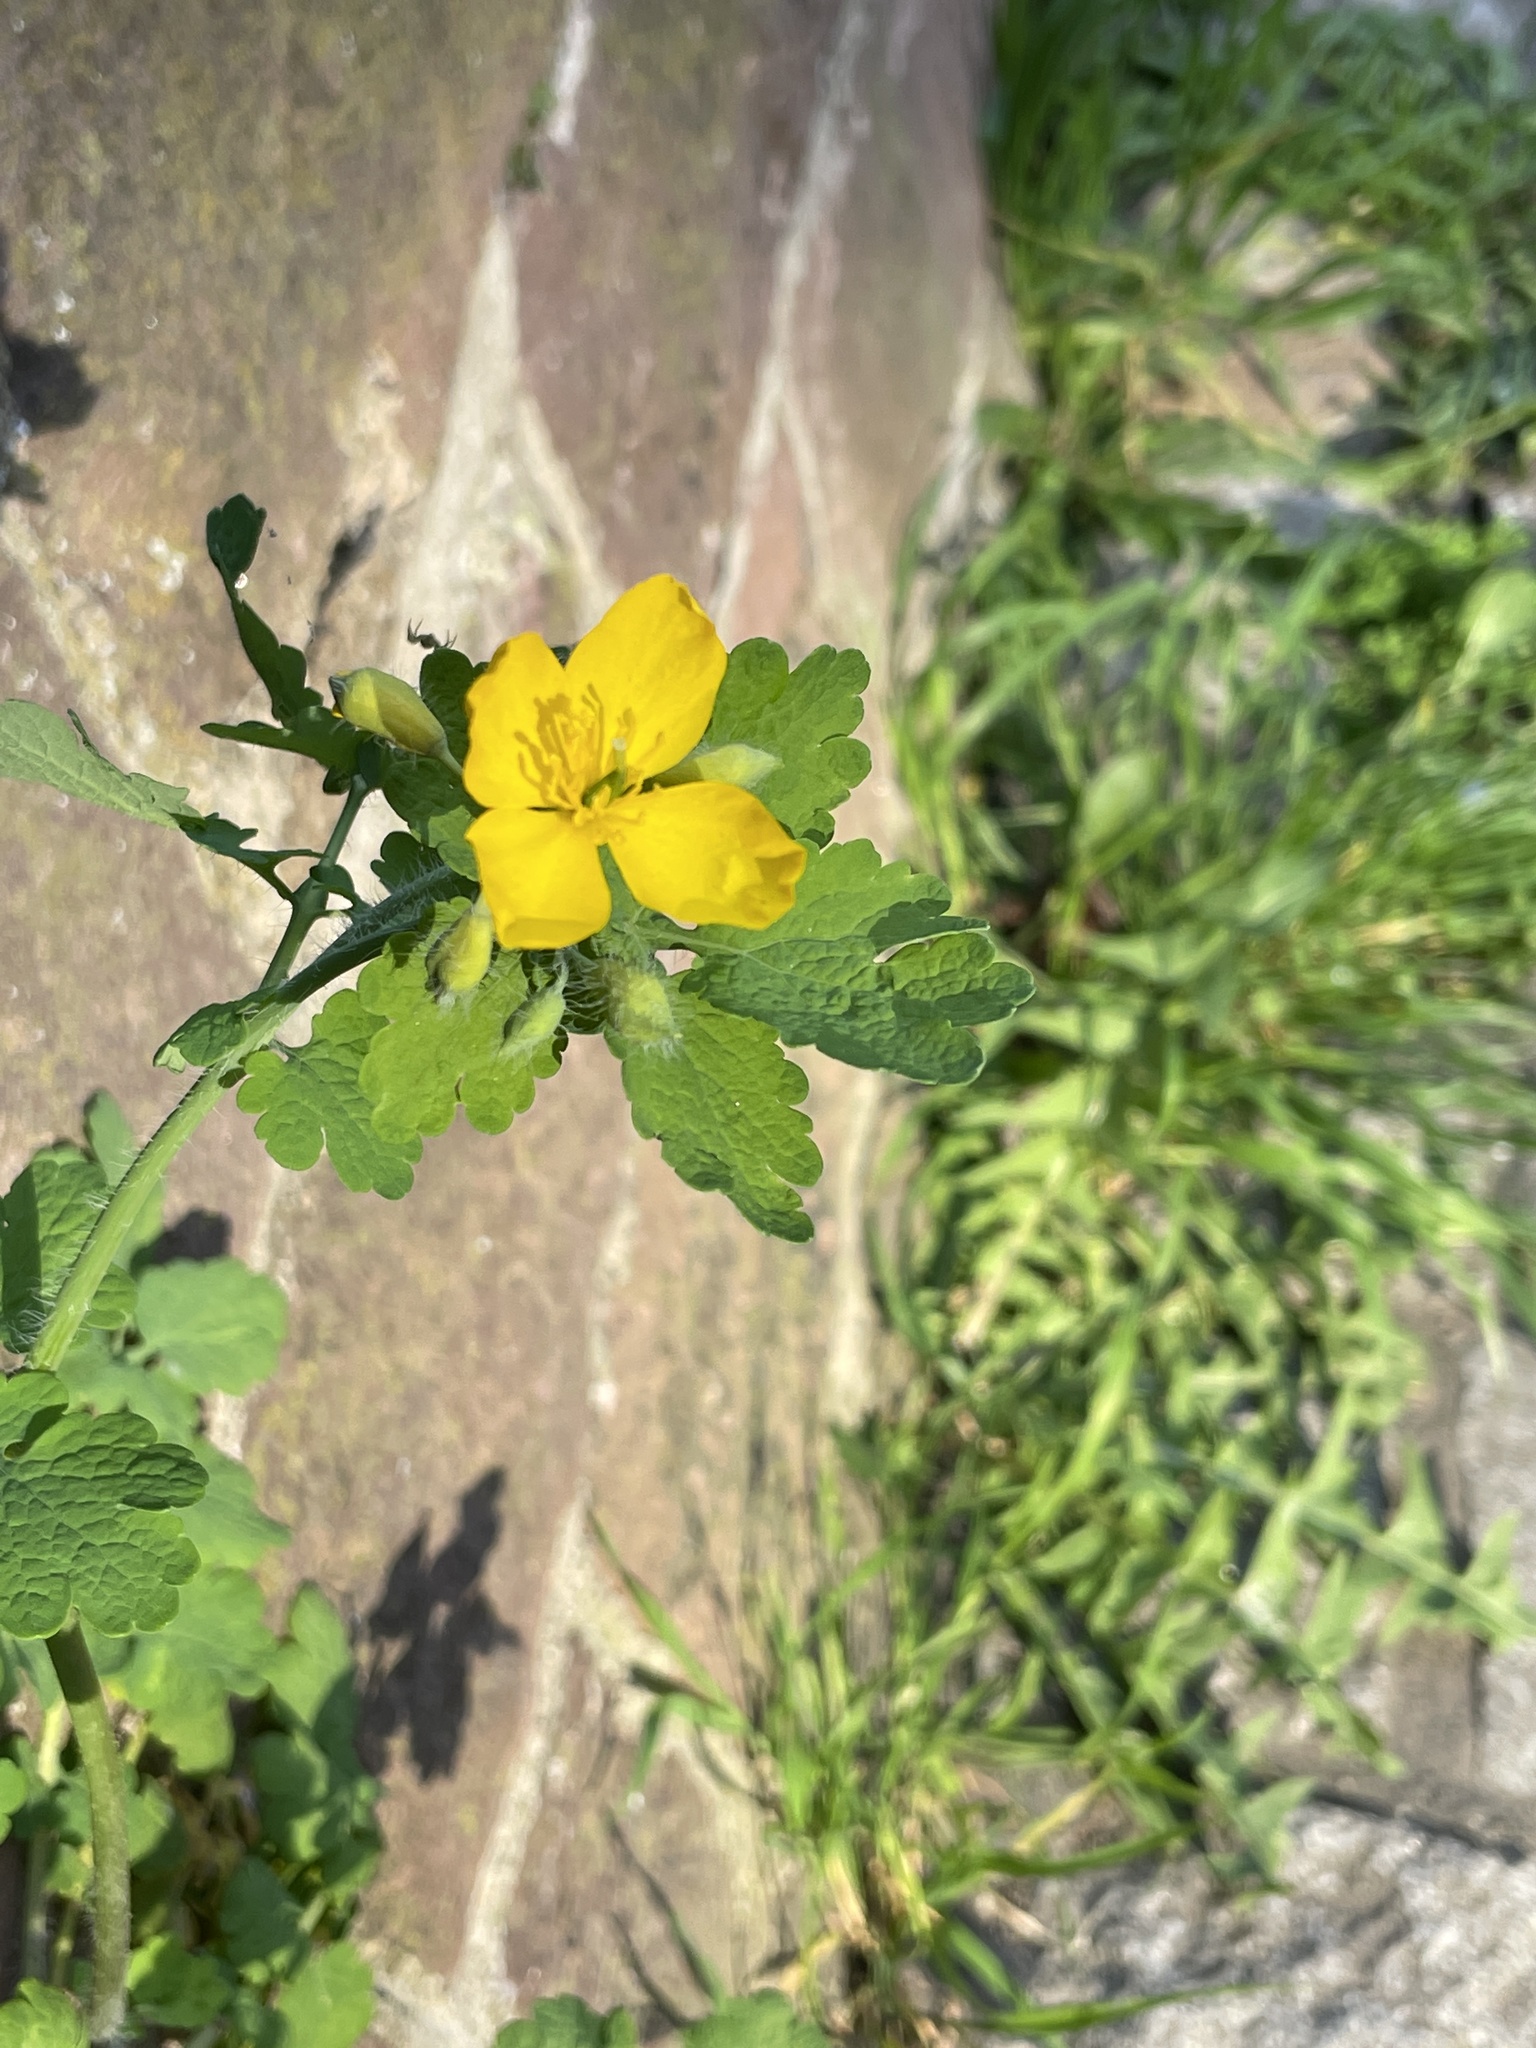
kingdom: Plantae
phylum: Tracheophyta
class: Magnoliopsida
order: Ranunculales
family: Papaveraceae
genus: Chelidonium
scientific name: Chelidonium majus
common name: Greater celandine
